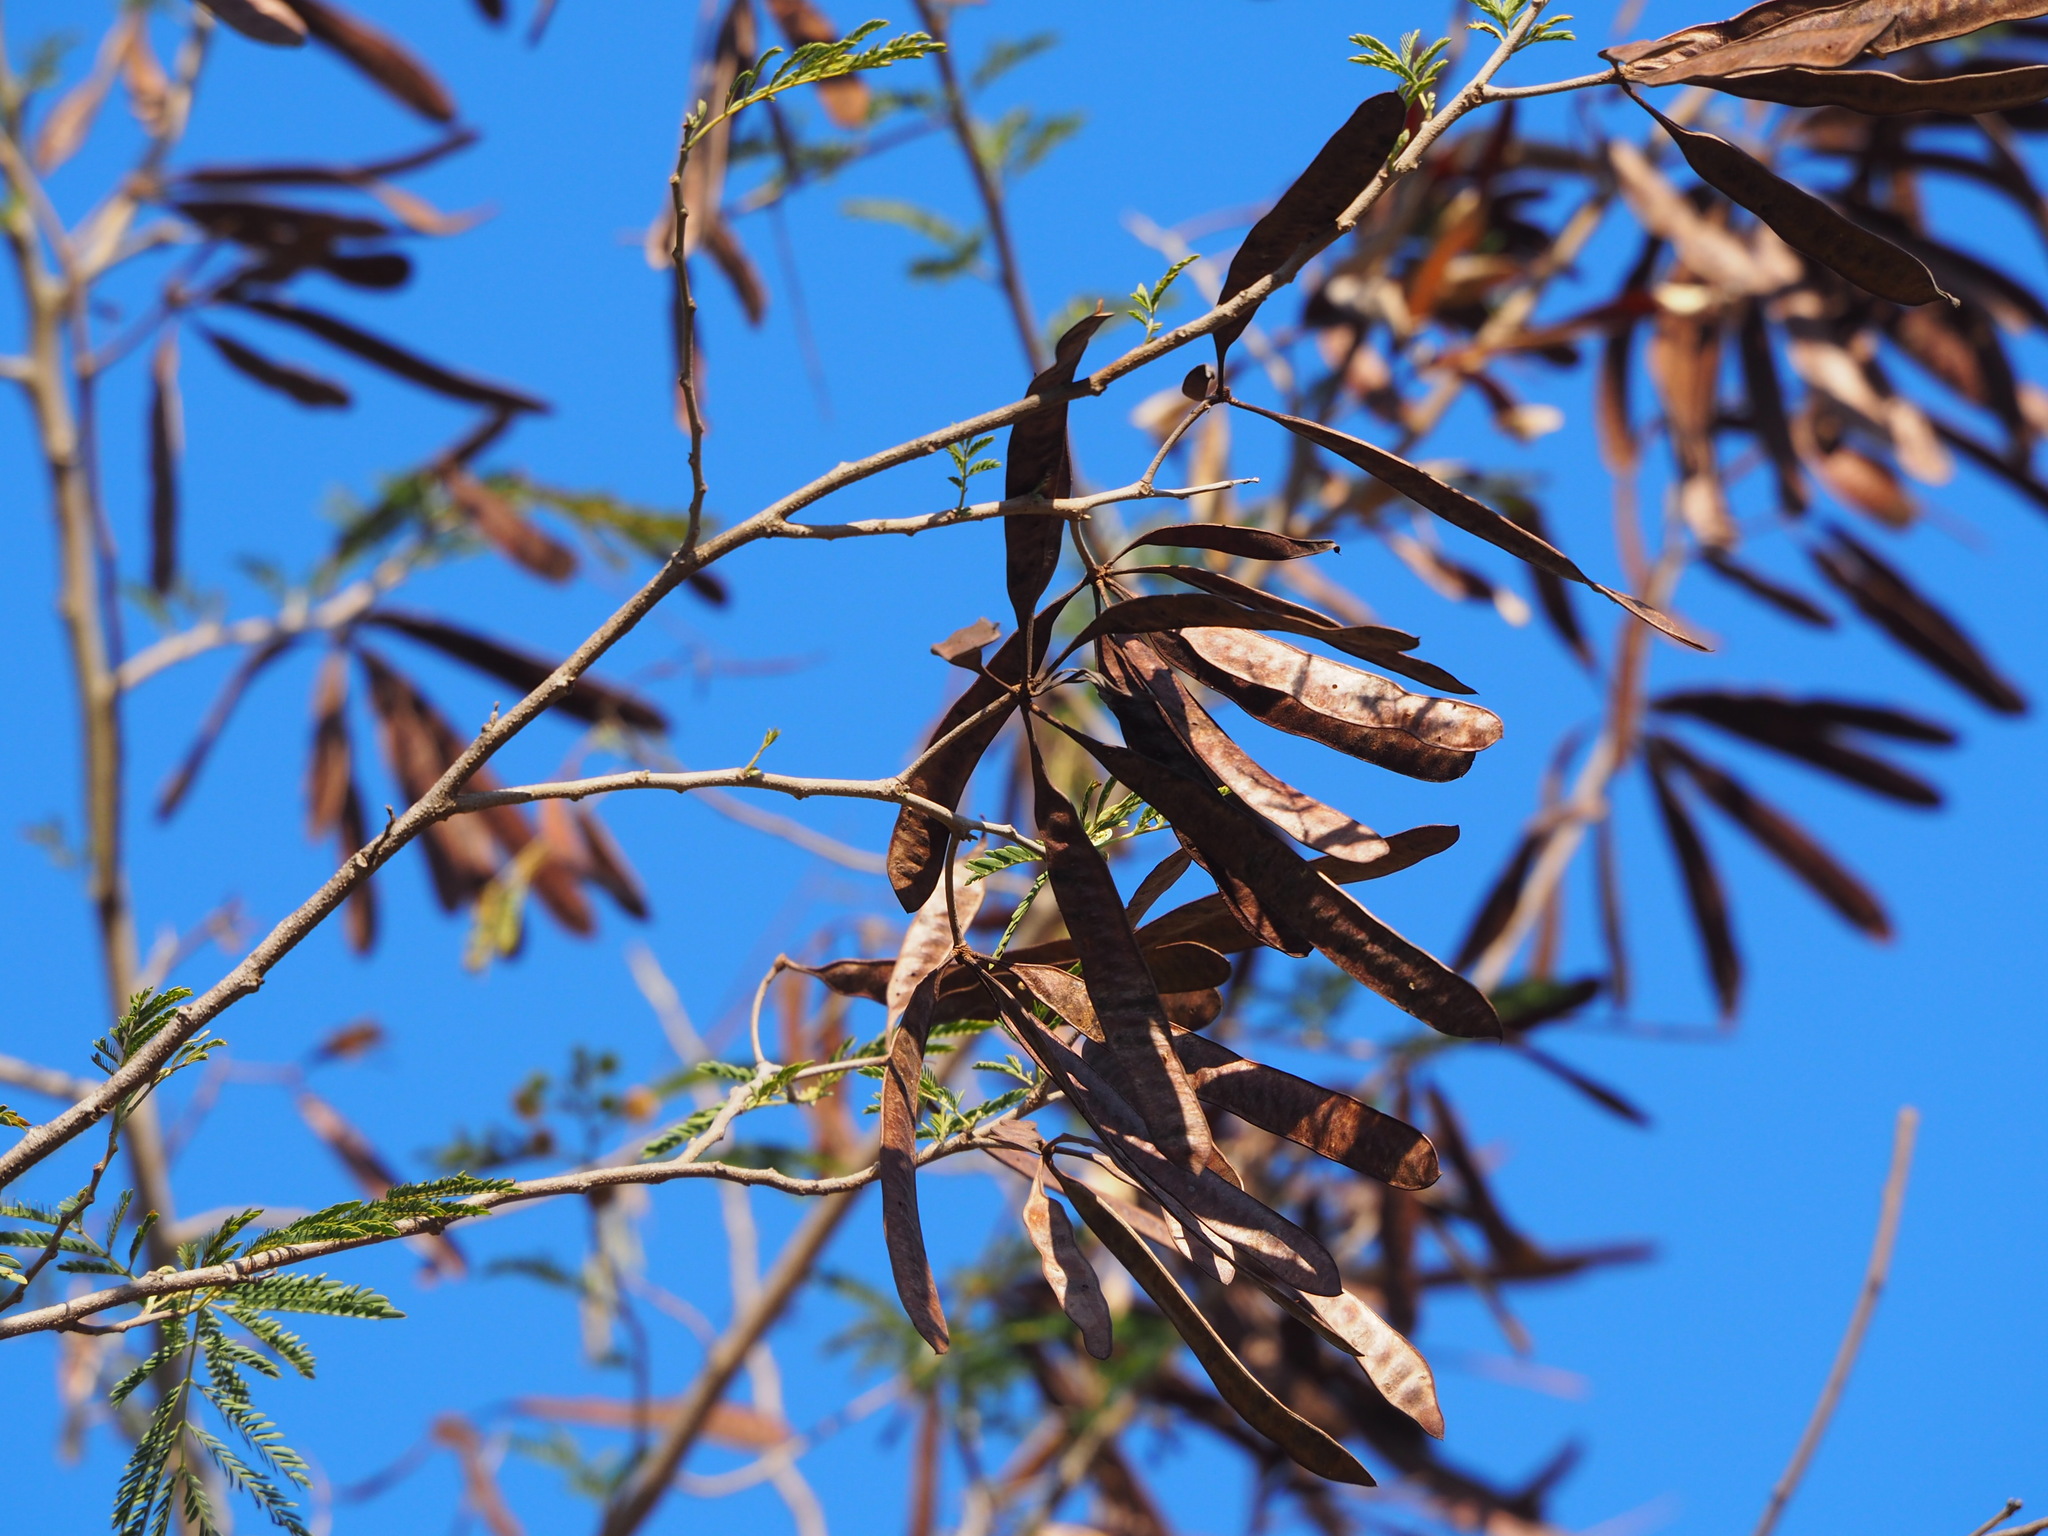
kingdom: Plantae
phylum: Tracheophyta
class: Magnoliopsida
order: Fabales
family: Fabaceae
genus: Leucaena
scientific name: Leucaena leucocephala
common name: White leadtree
